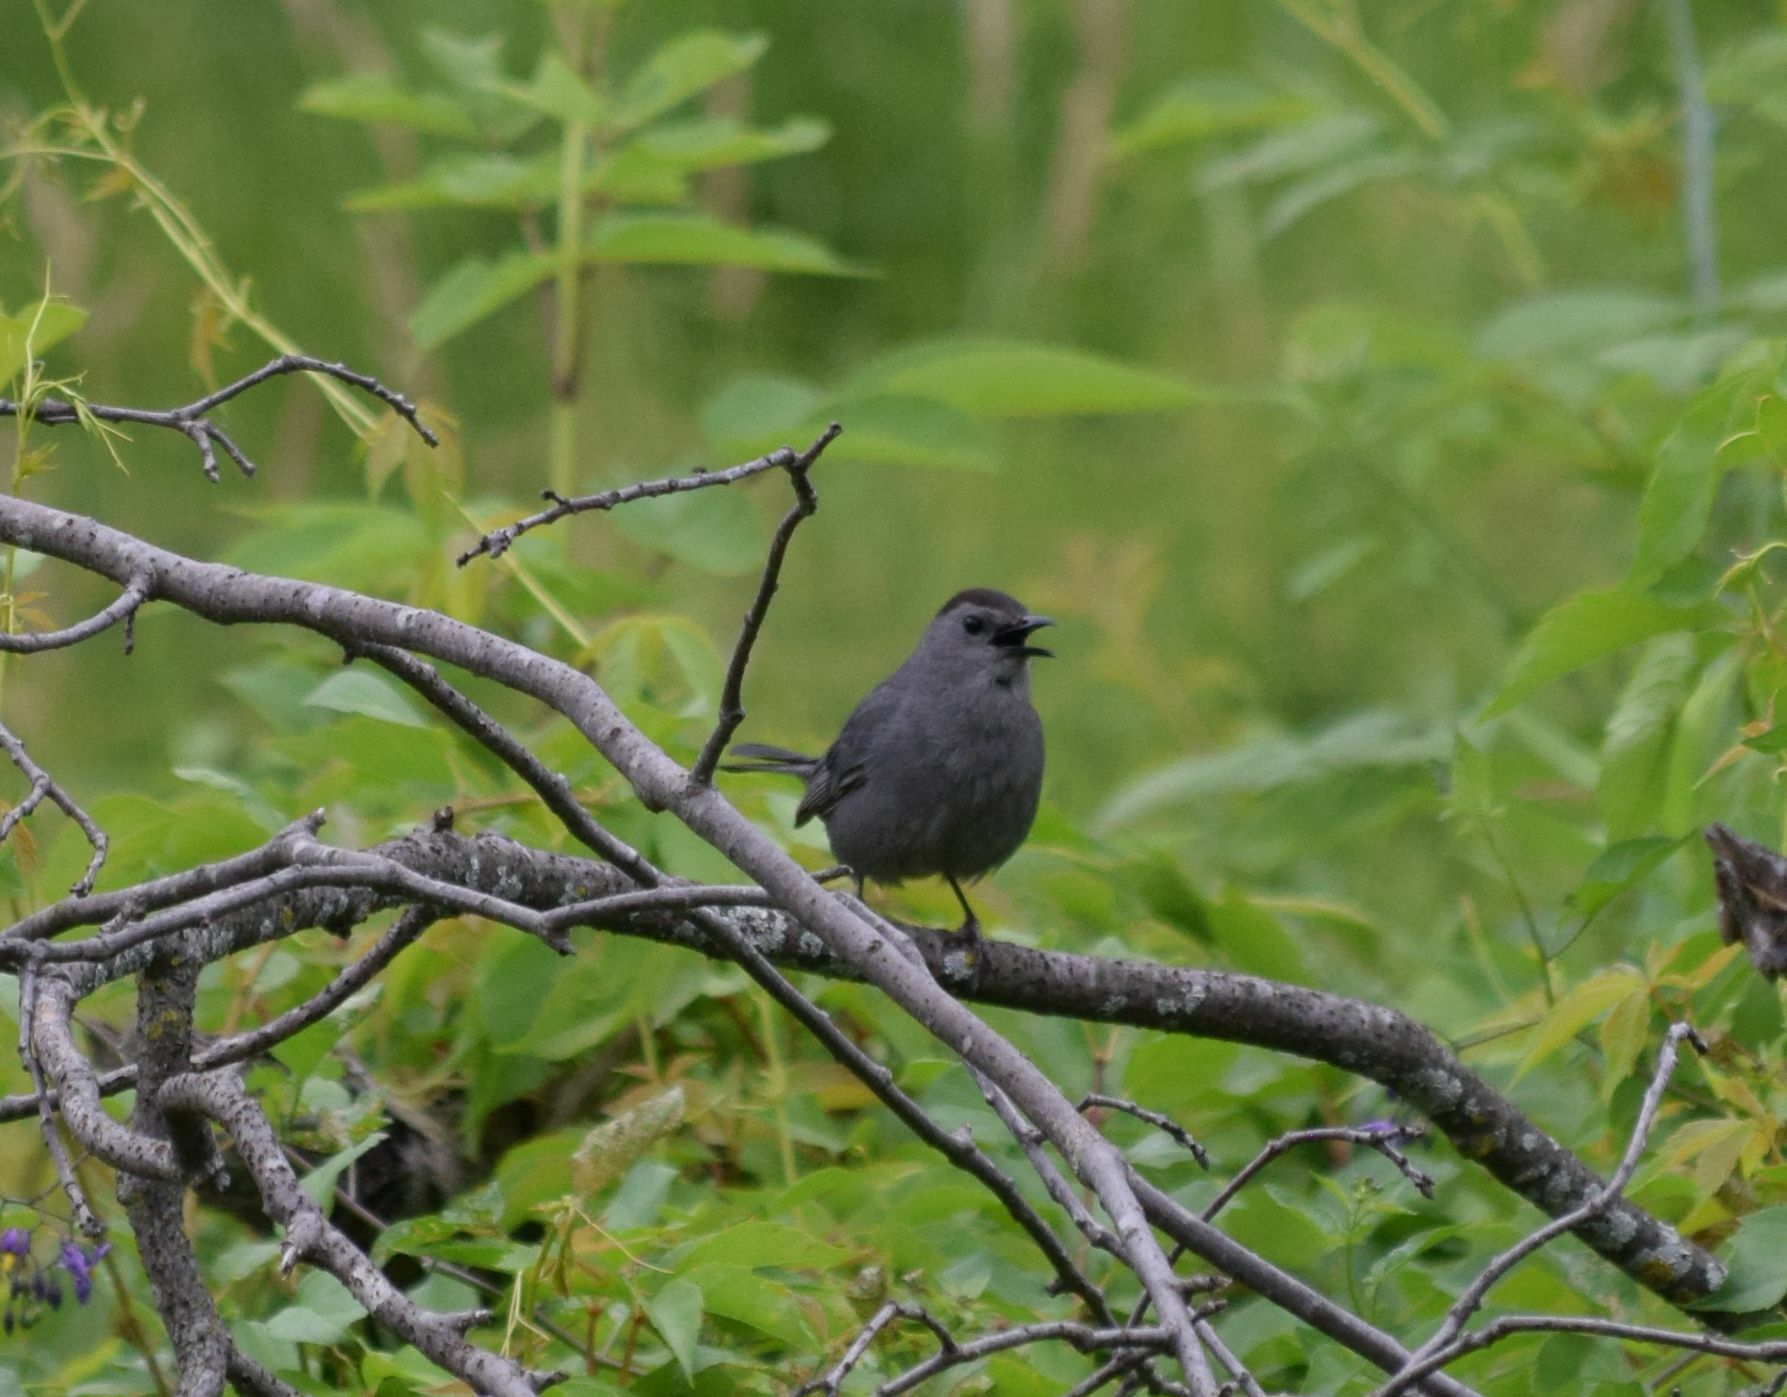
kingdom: Animalia
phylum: Chordata
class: Aves
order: Passeriformes
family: Mimidae
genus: Dumetella
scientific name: Dumetella carolinensis
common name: Gray catbird
